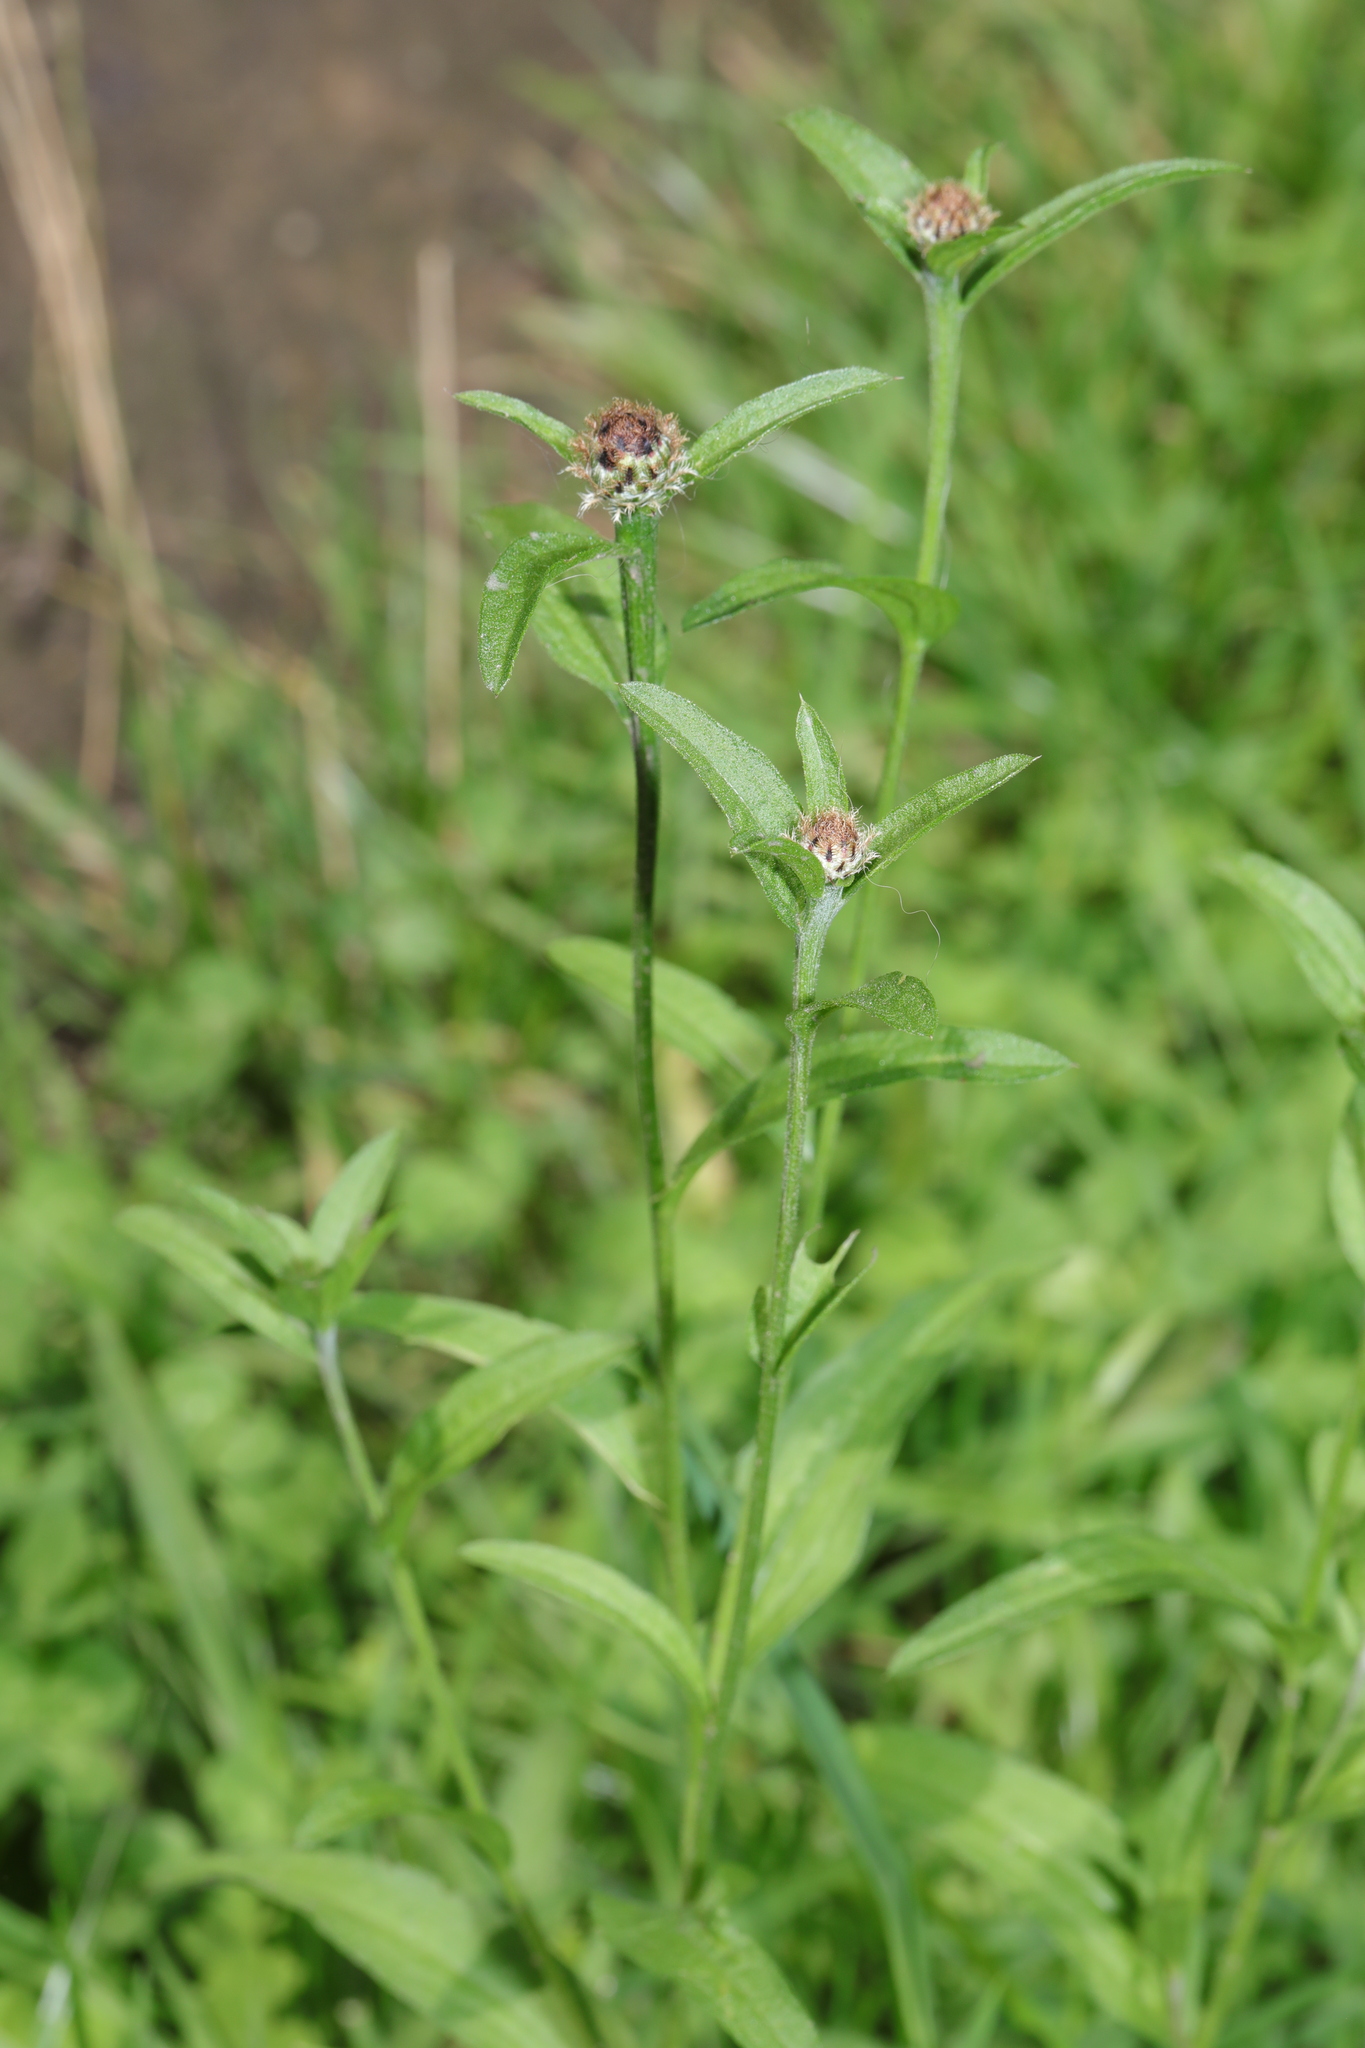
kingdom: Plantae
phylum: Tracheophyta
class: Magnoliopsida
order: Asterales
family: Asteraceae
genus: Centaurea
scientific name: Centaurea nigra
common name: Lesser knapweed
